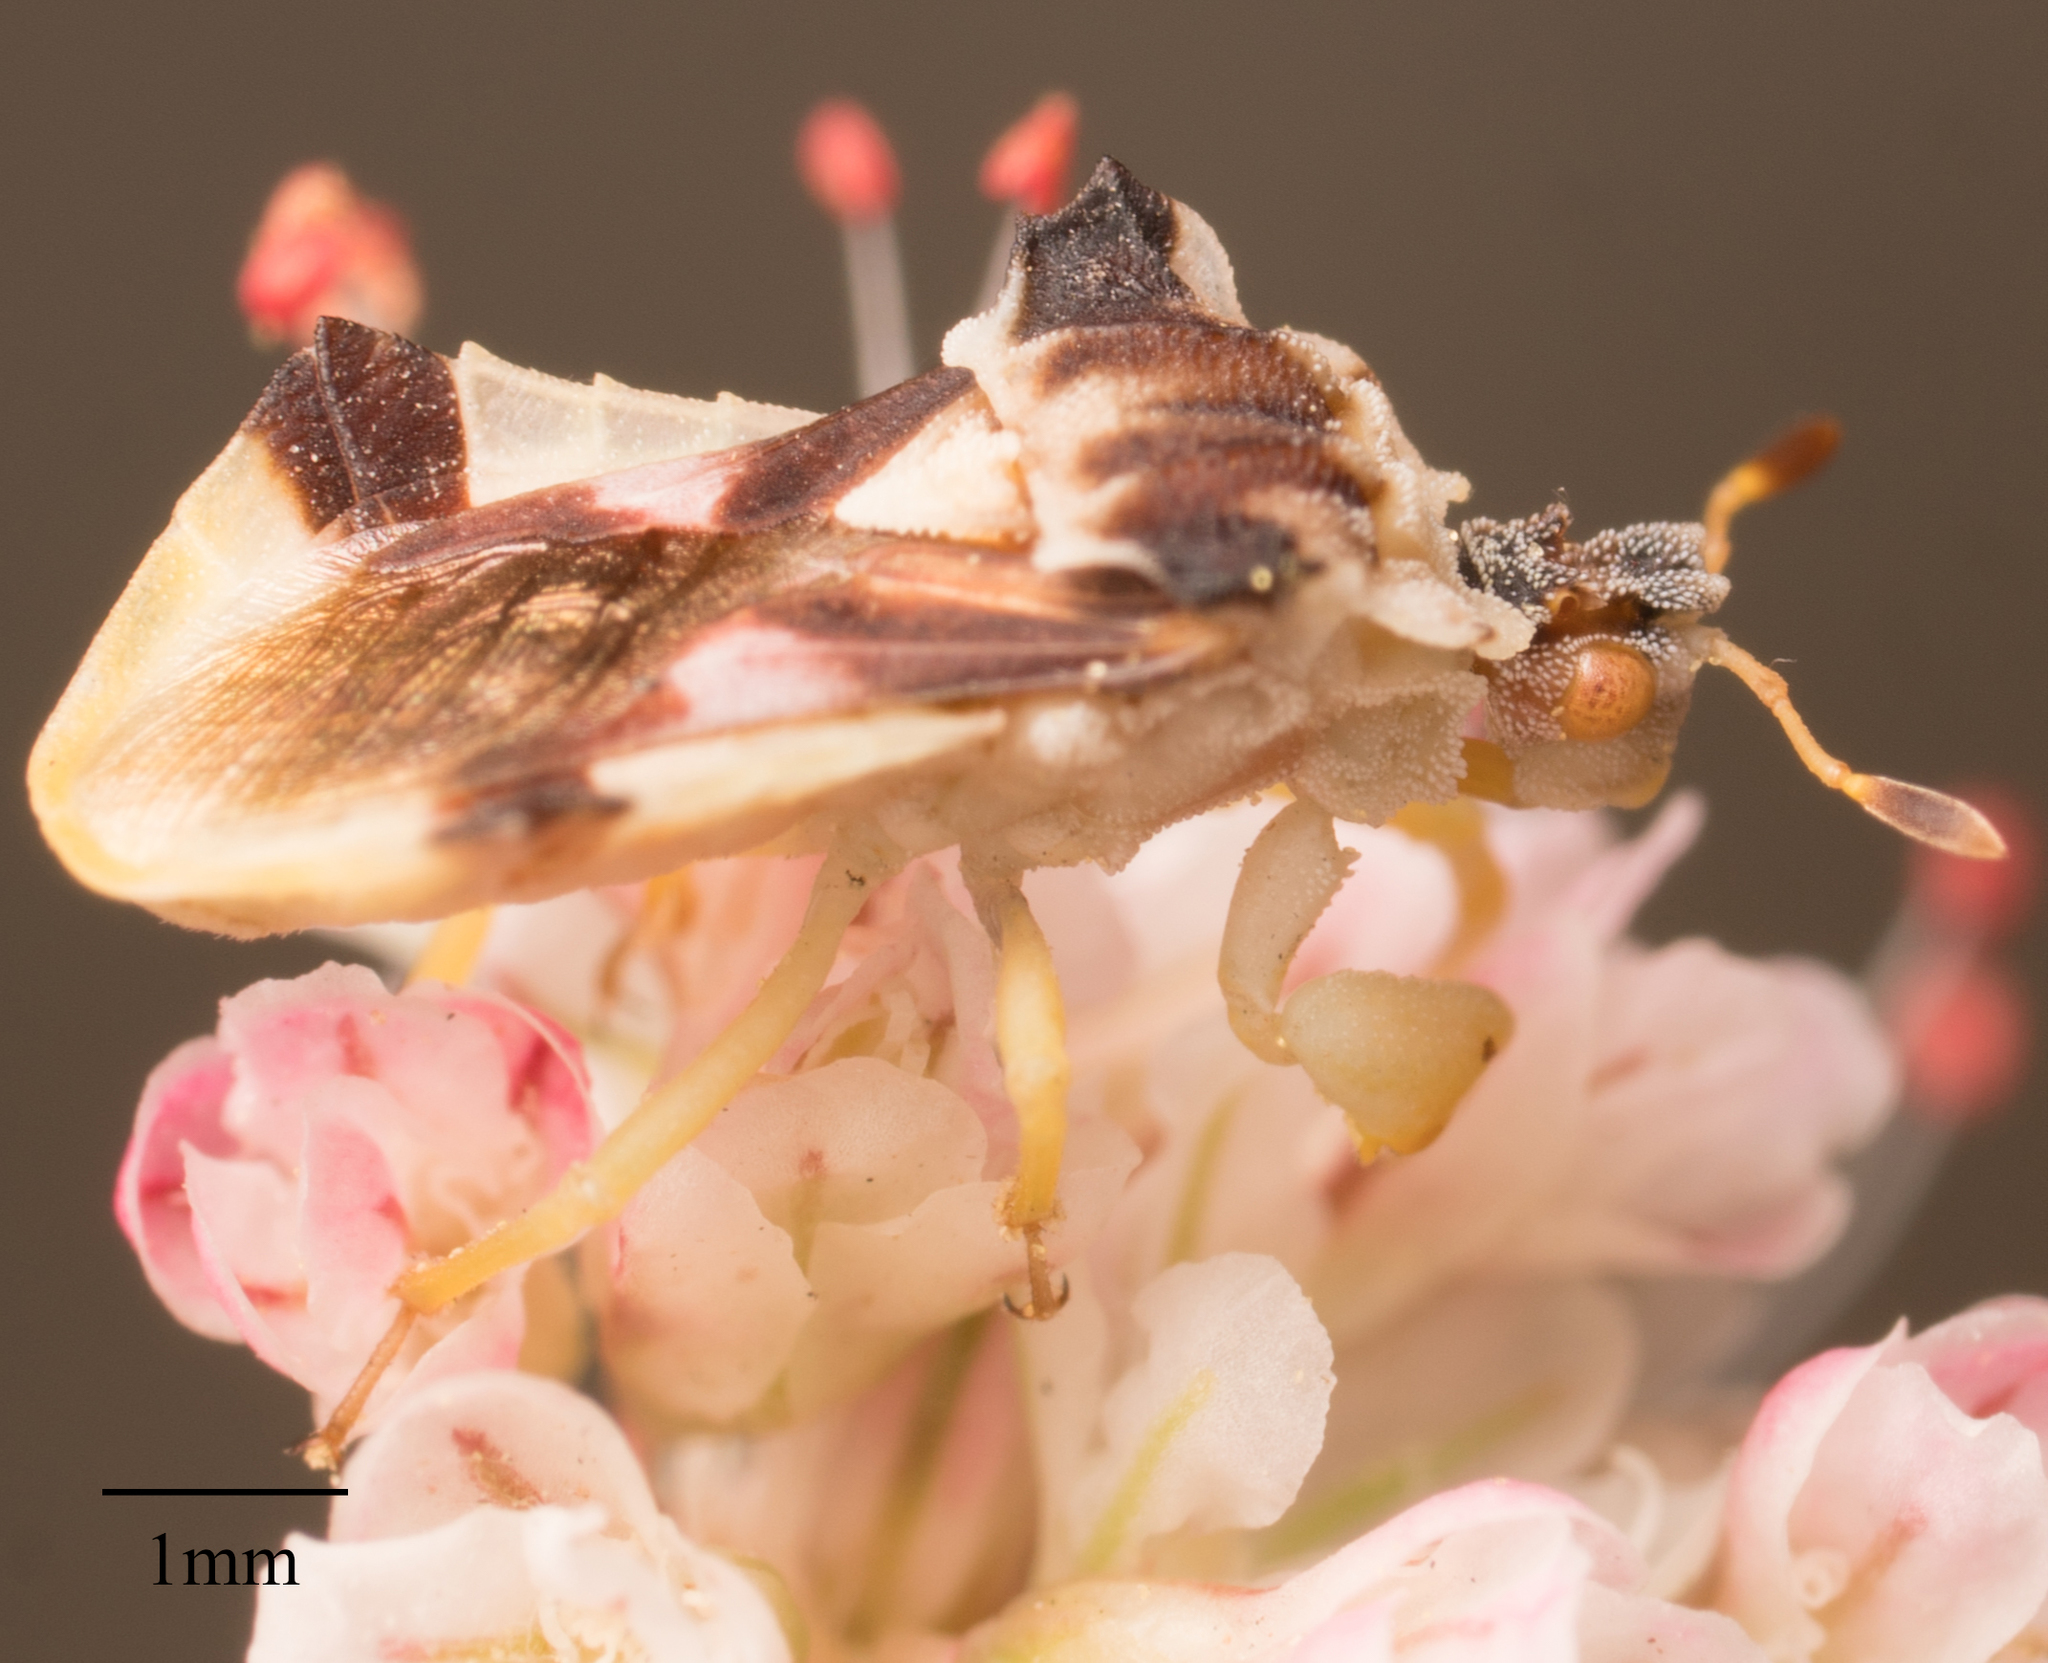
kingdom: Animalia
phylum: Arthropoda
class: Insecta
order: Hemiptera
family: Reduviidae
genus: Phymata
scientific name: Phymata pacifica
